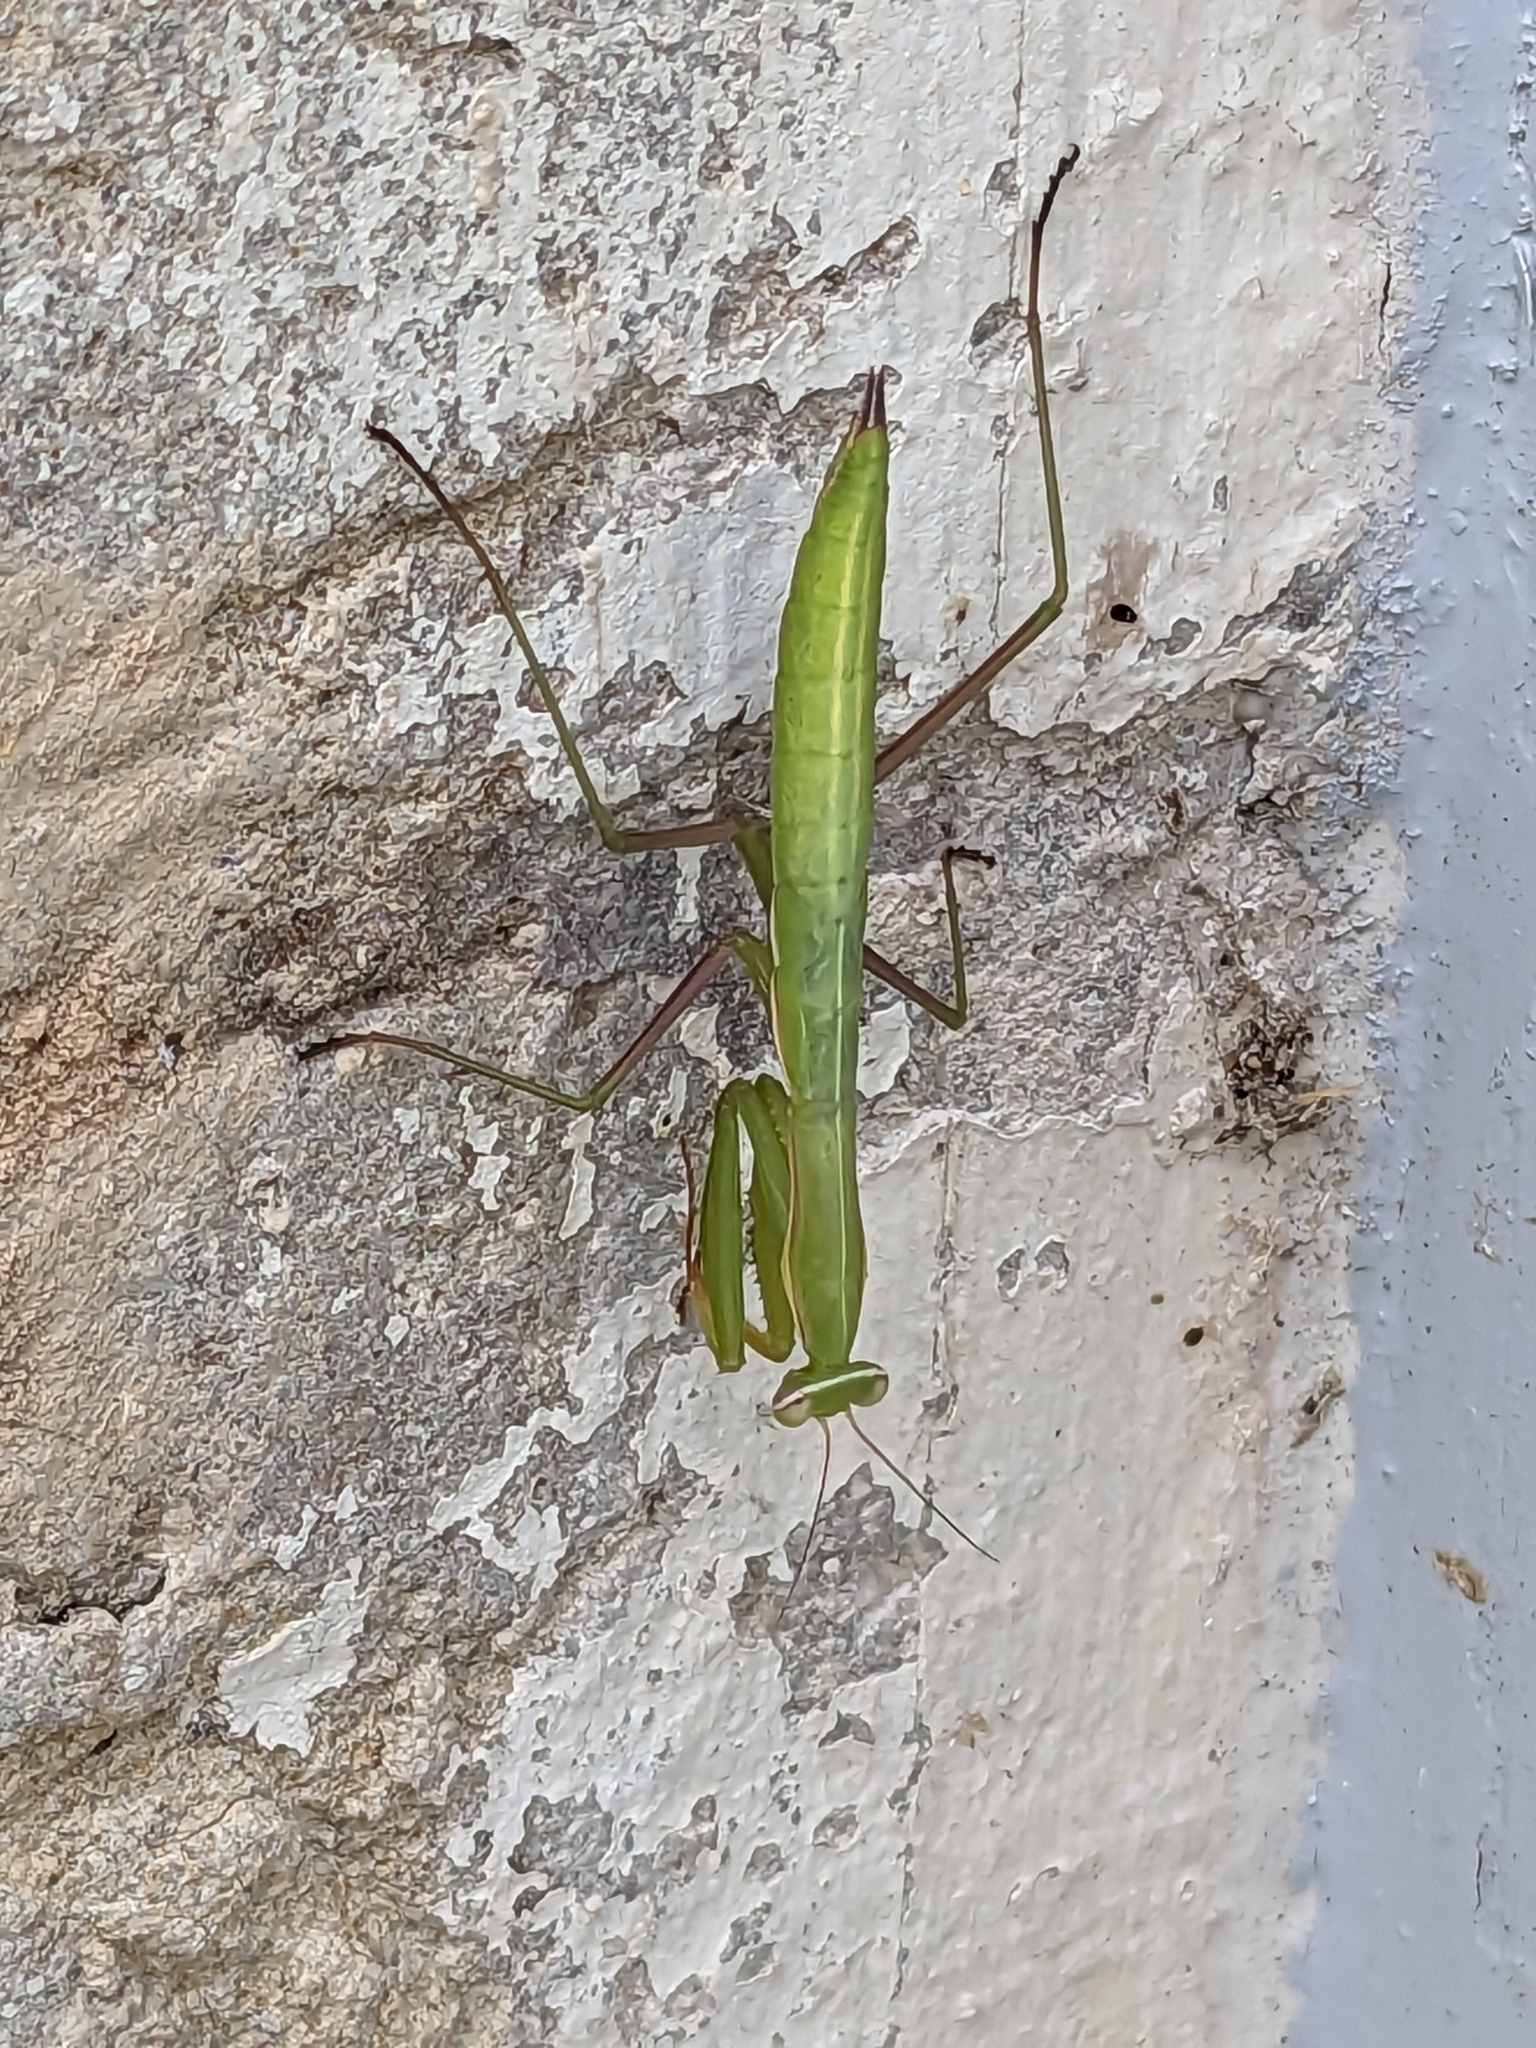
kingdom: Animalia
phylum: Arthropoda
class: Insecta
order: Mantodea
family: Mantidae
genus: Mantis
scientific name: Mantis religiosa
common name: Praying mantis
